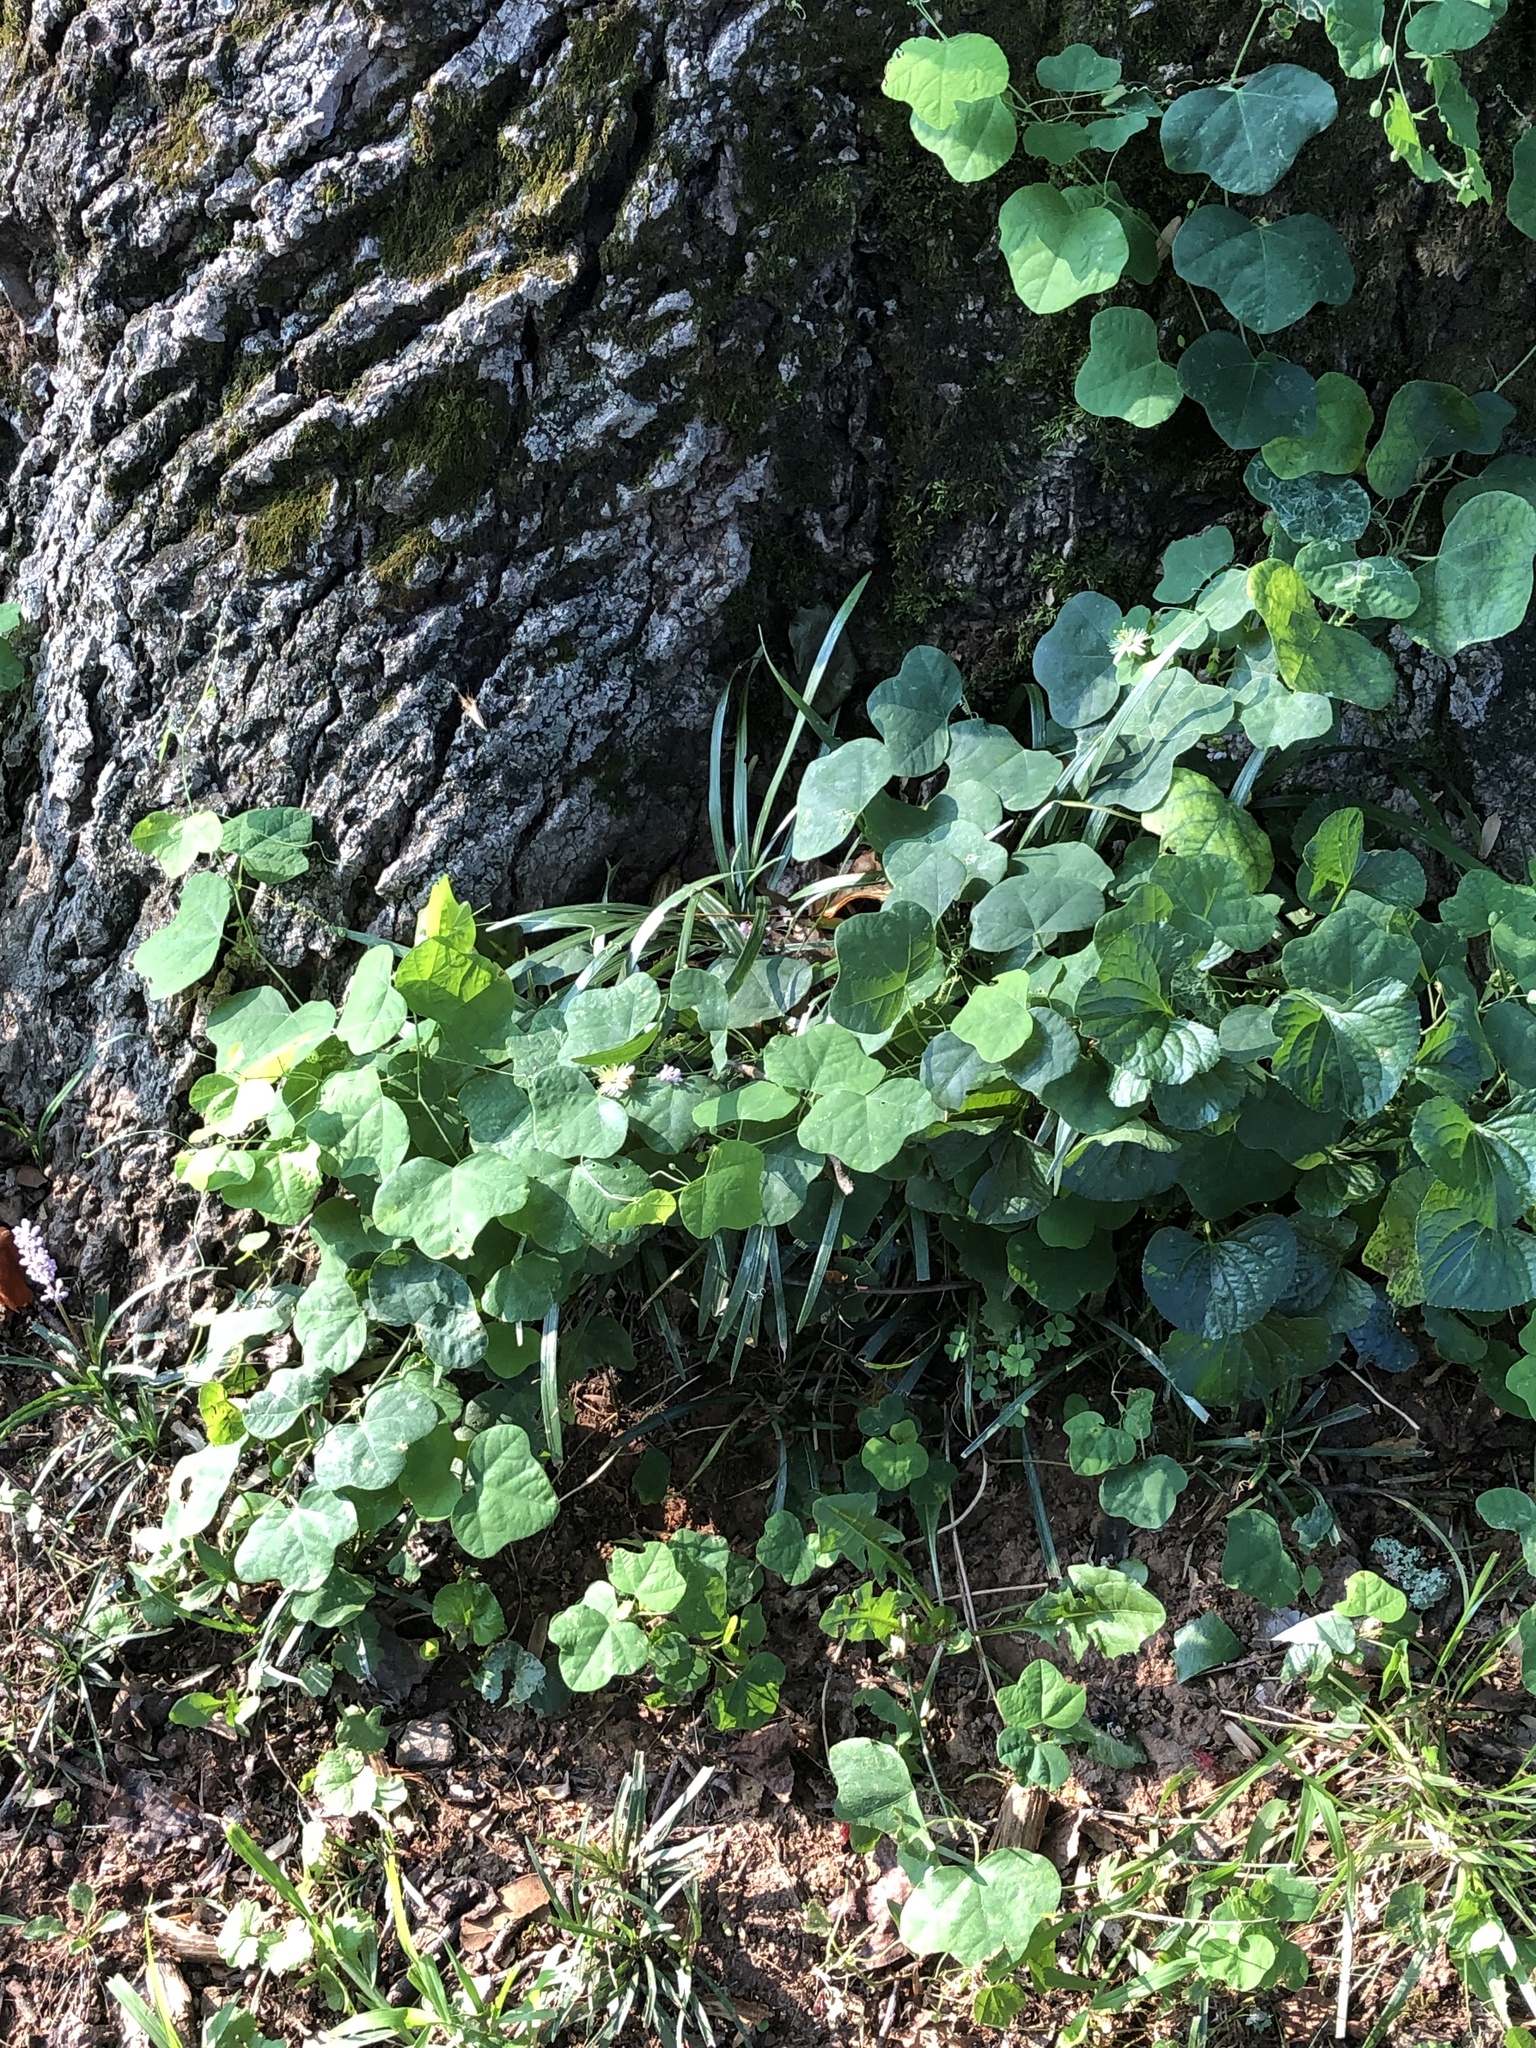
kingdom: Plantae
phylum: Tracheophyta
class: Magnoliopsida
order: Malpighiales
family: Passifloraceae
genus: Passiflora
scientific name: Passiflora lutea
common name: Yellow passionflower
